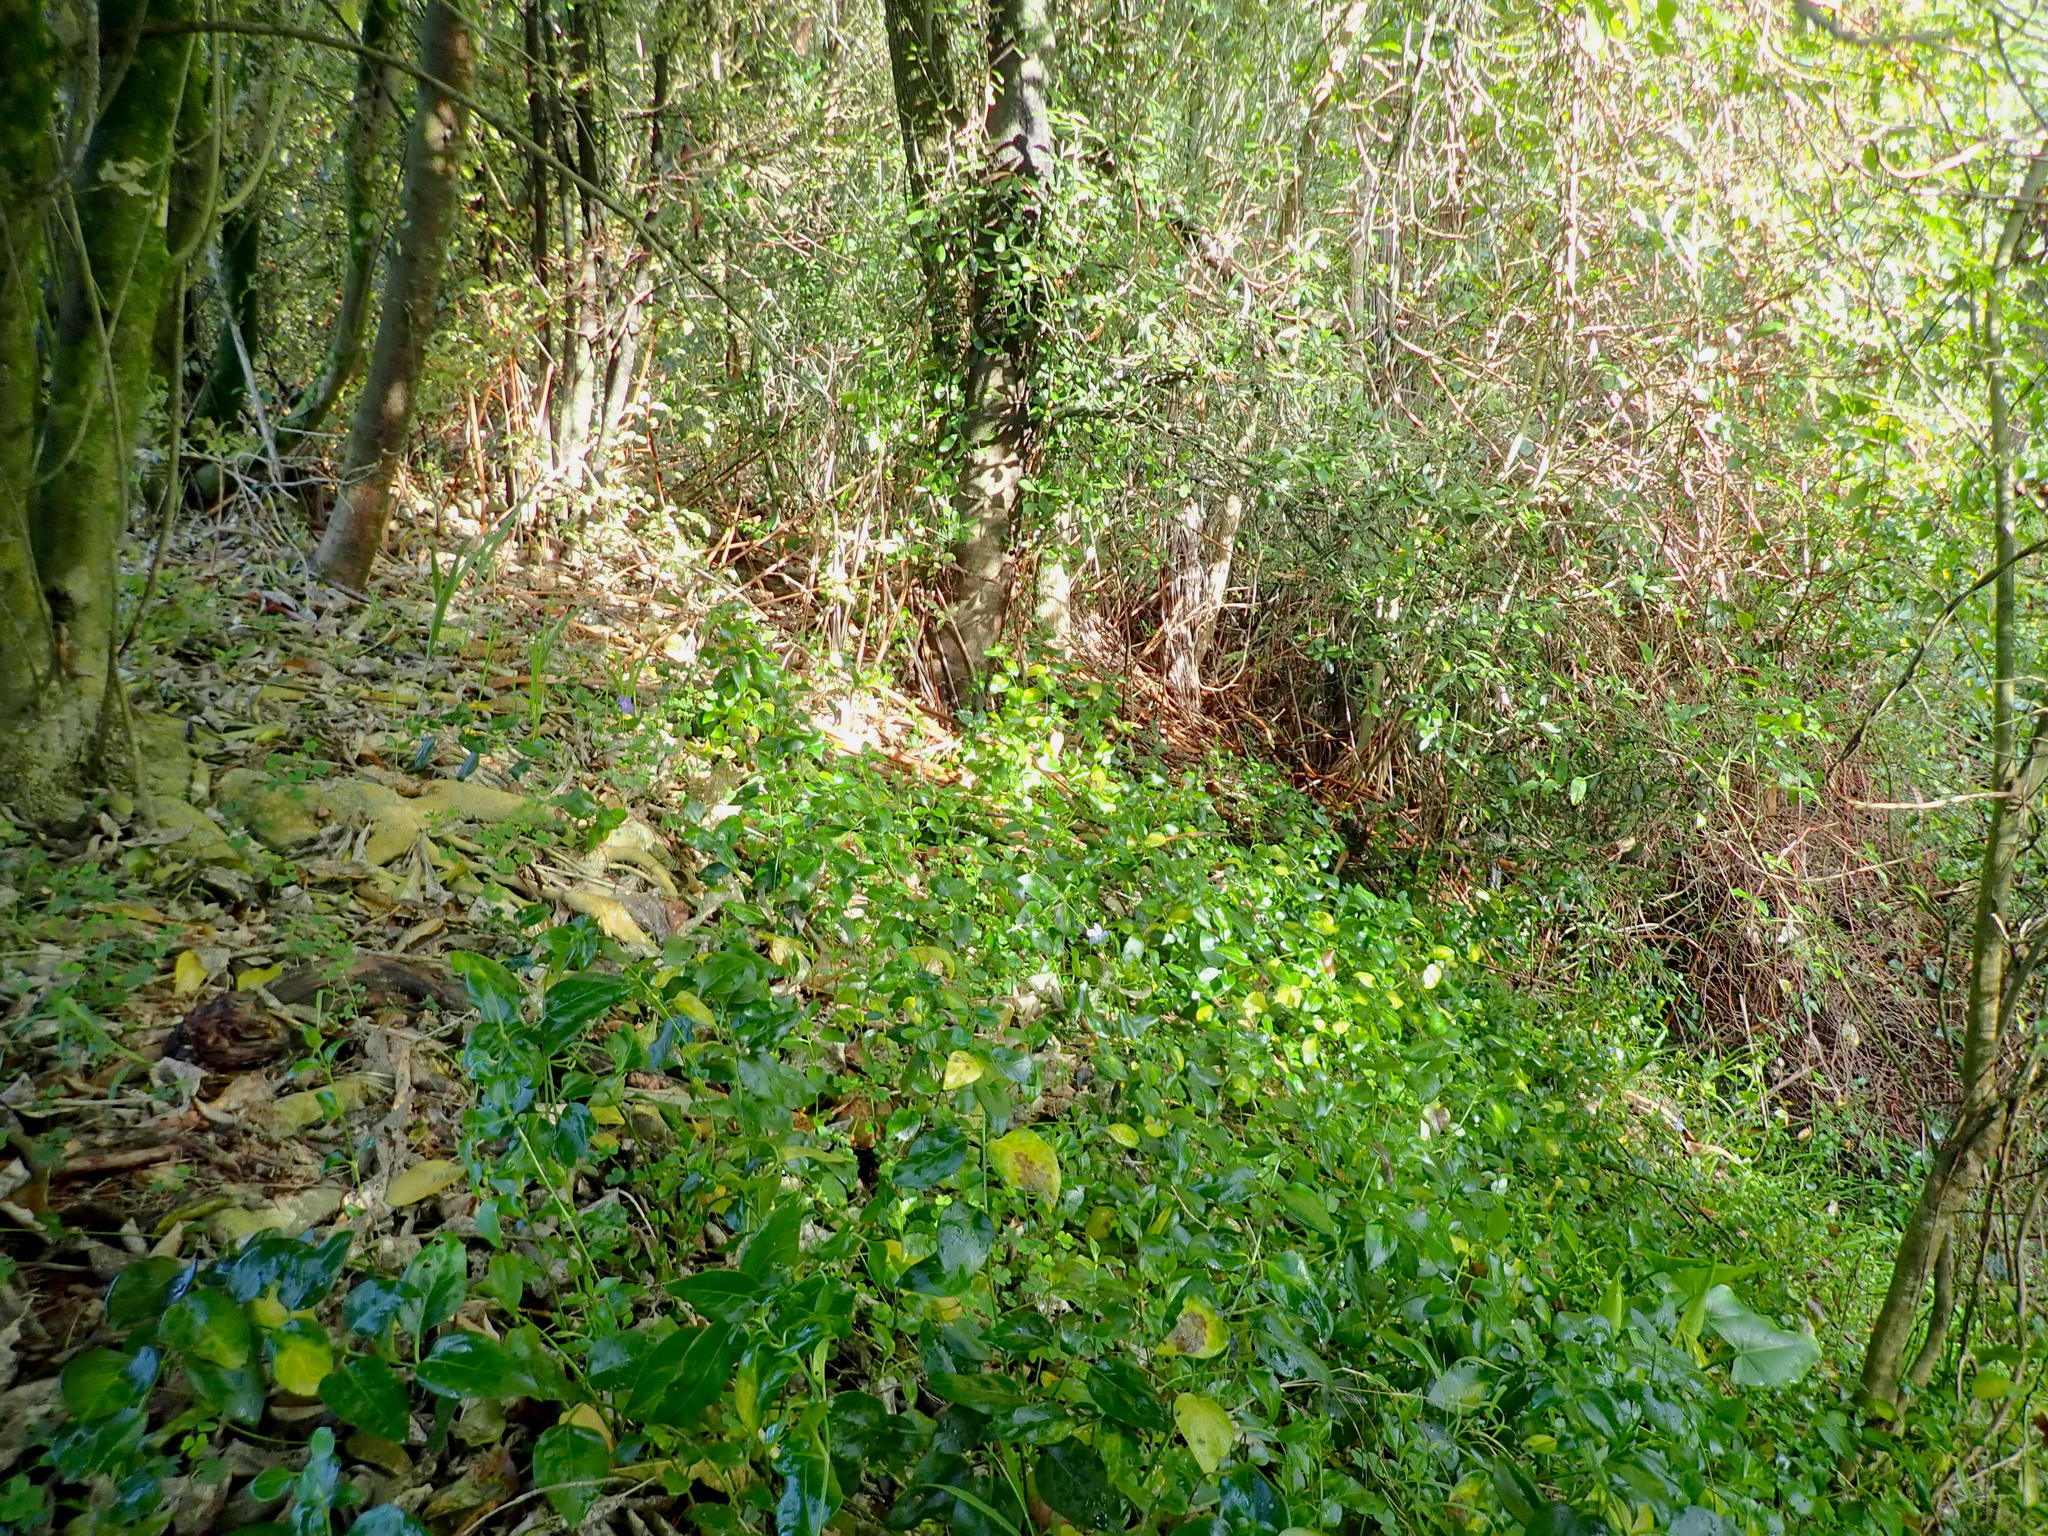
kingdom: Plantae
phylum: Tracheophyta
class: Magnoliopsida
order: Gentianales
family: Apocynaceae
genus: Vinca
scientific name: Vinca major
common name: Greater periwinkle
